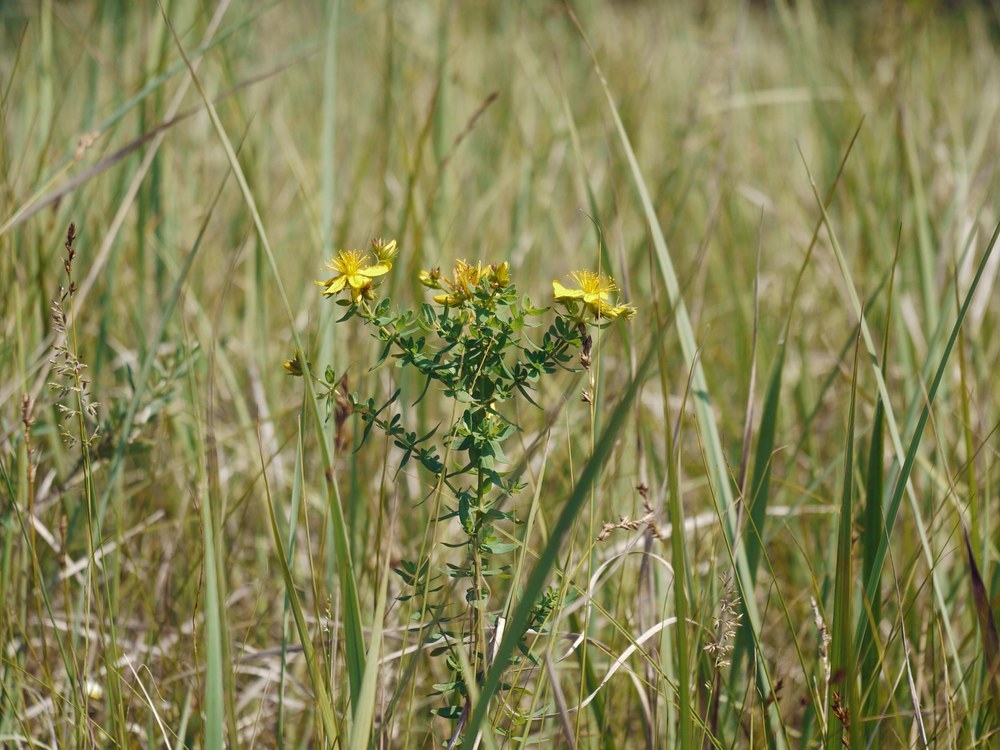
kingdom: Plantae
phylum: Tracheophyta
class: Magnoliopsida
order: Malpighiales
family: Hypericaceae
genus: Hypericum
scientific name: Hypericum perforatum
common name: Common st. johnswort
